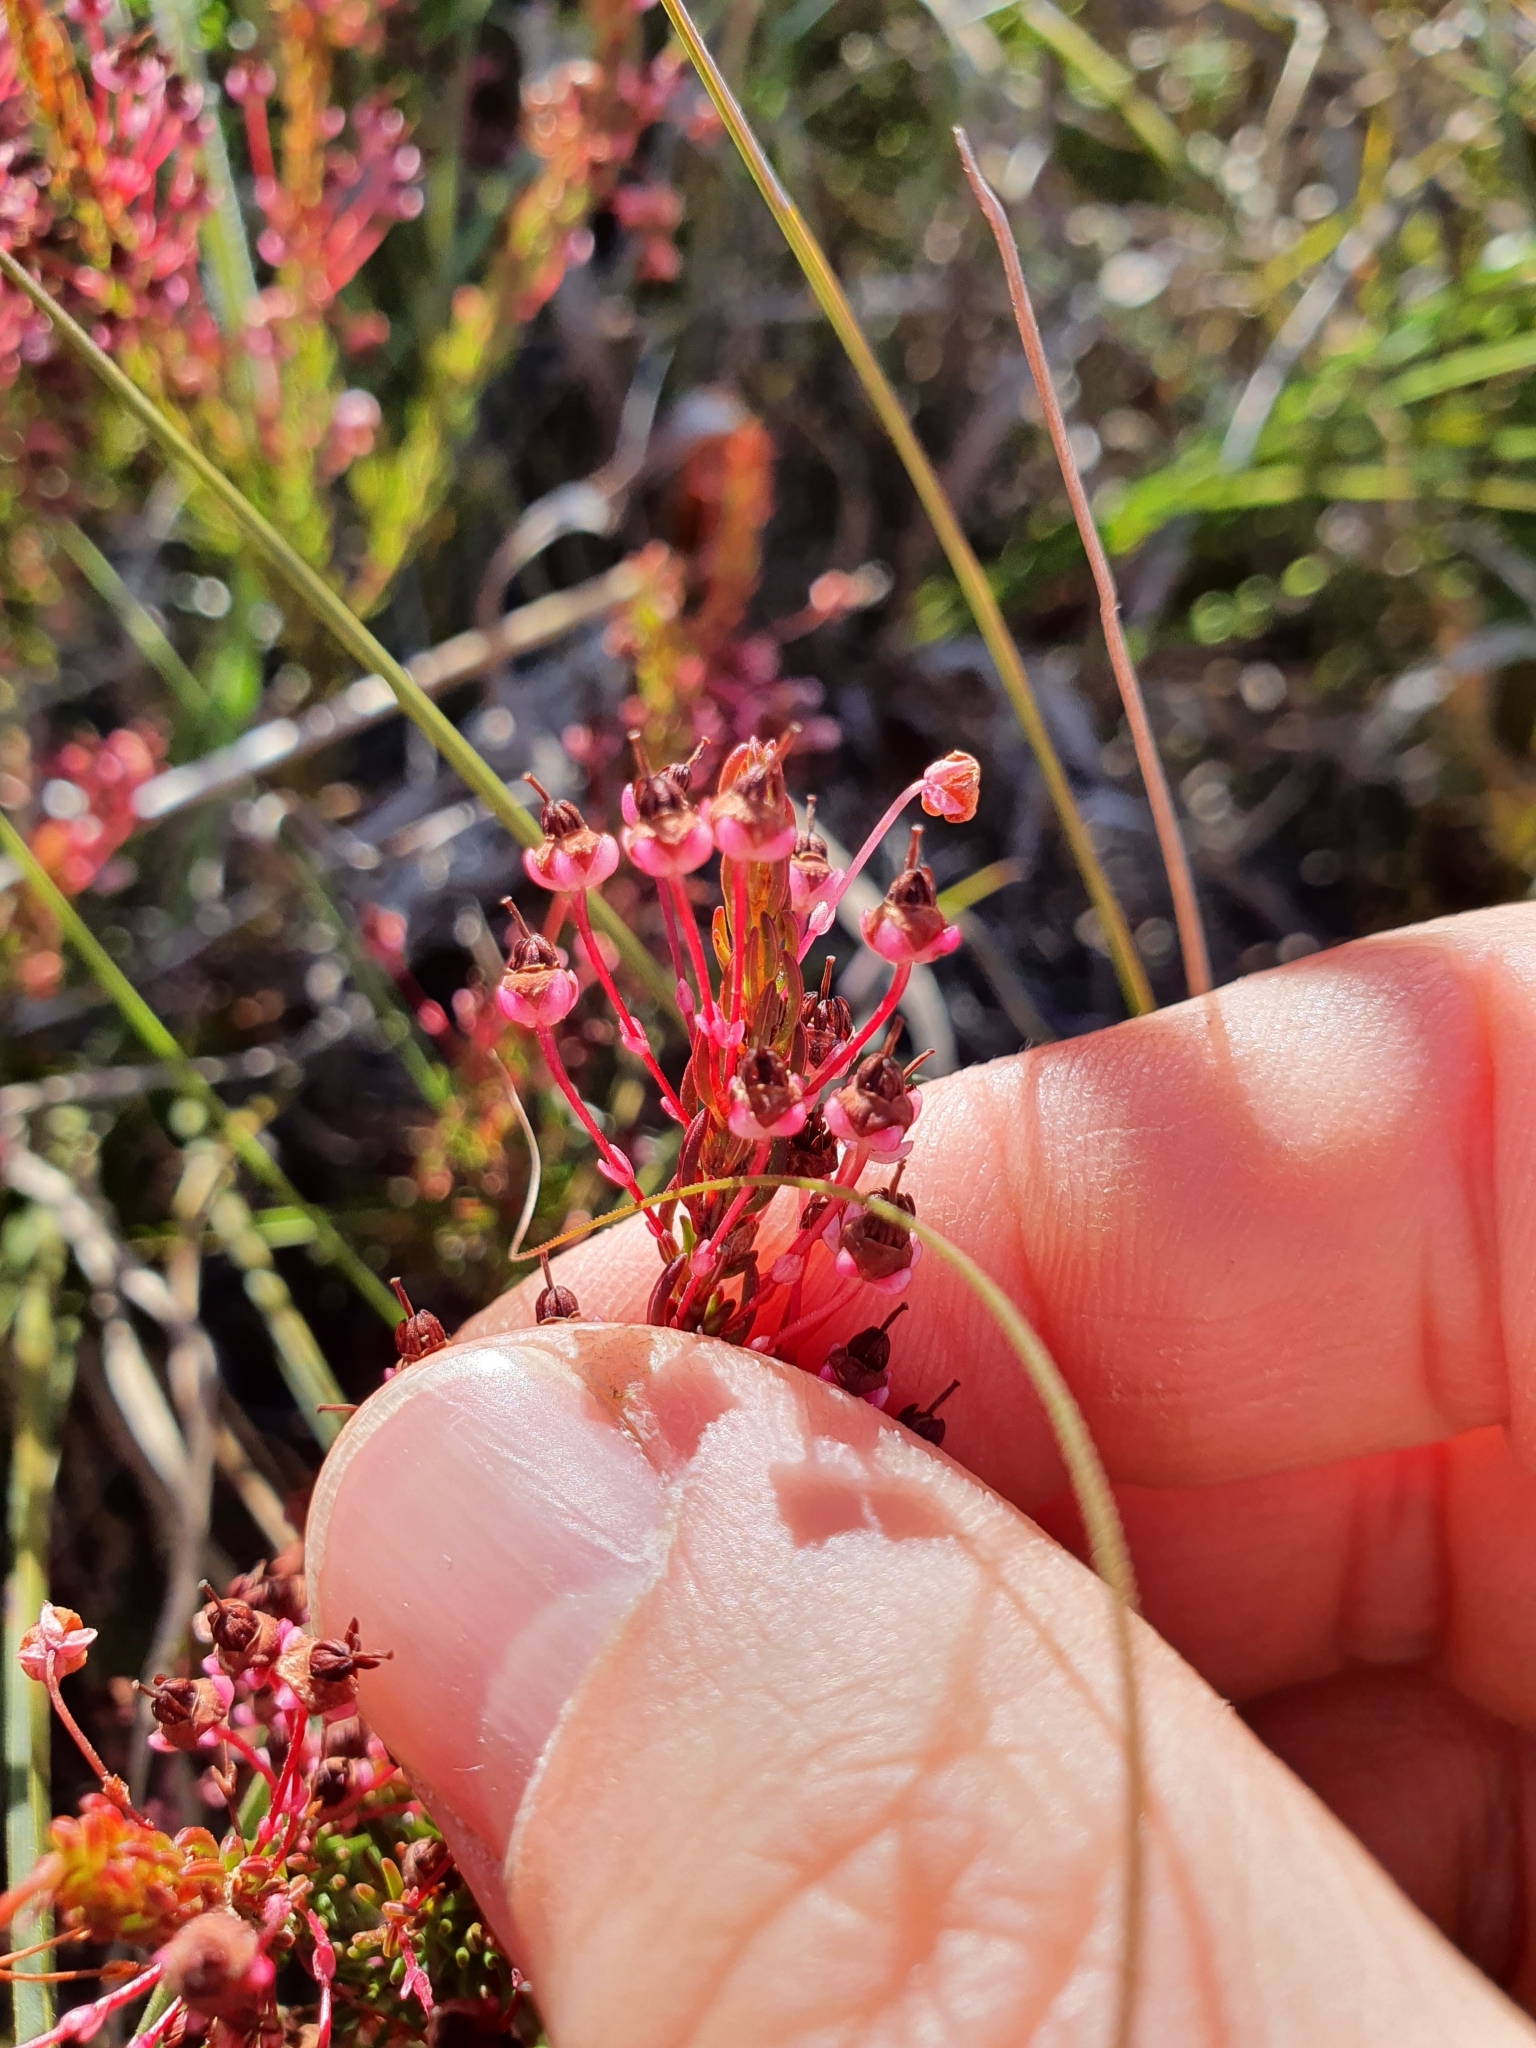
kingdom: Plantae
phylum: Tracheophyta
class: Magnoliopsida
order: Ericales
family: Ericaceae
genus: Erica
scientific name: Erica rubiginosa
